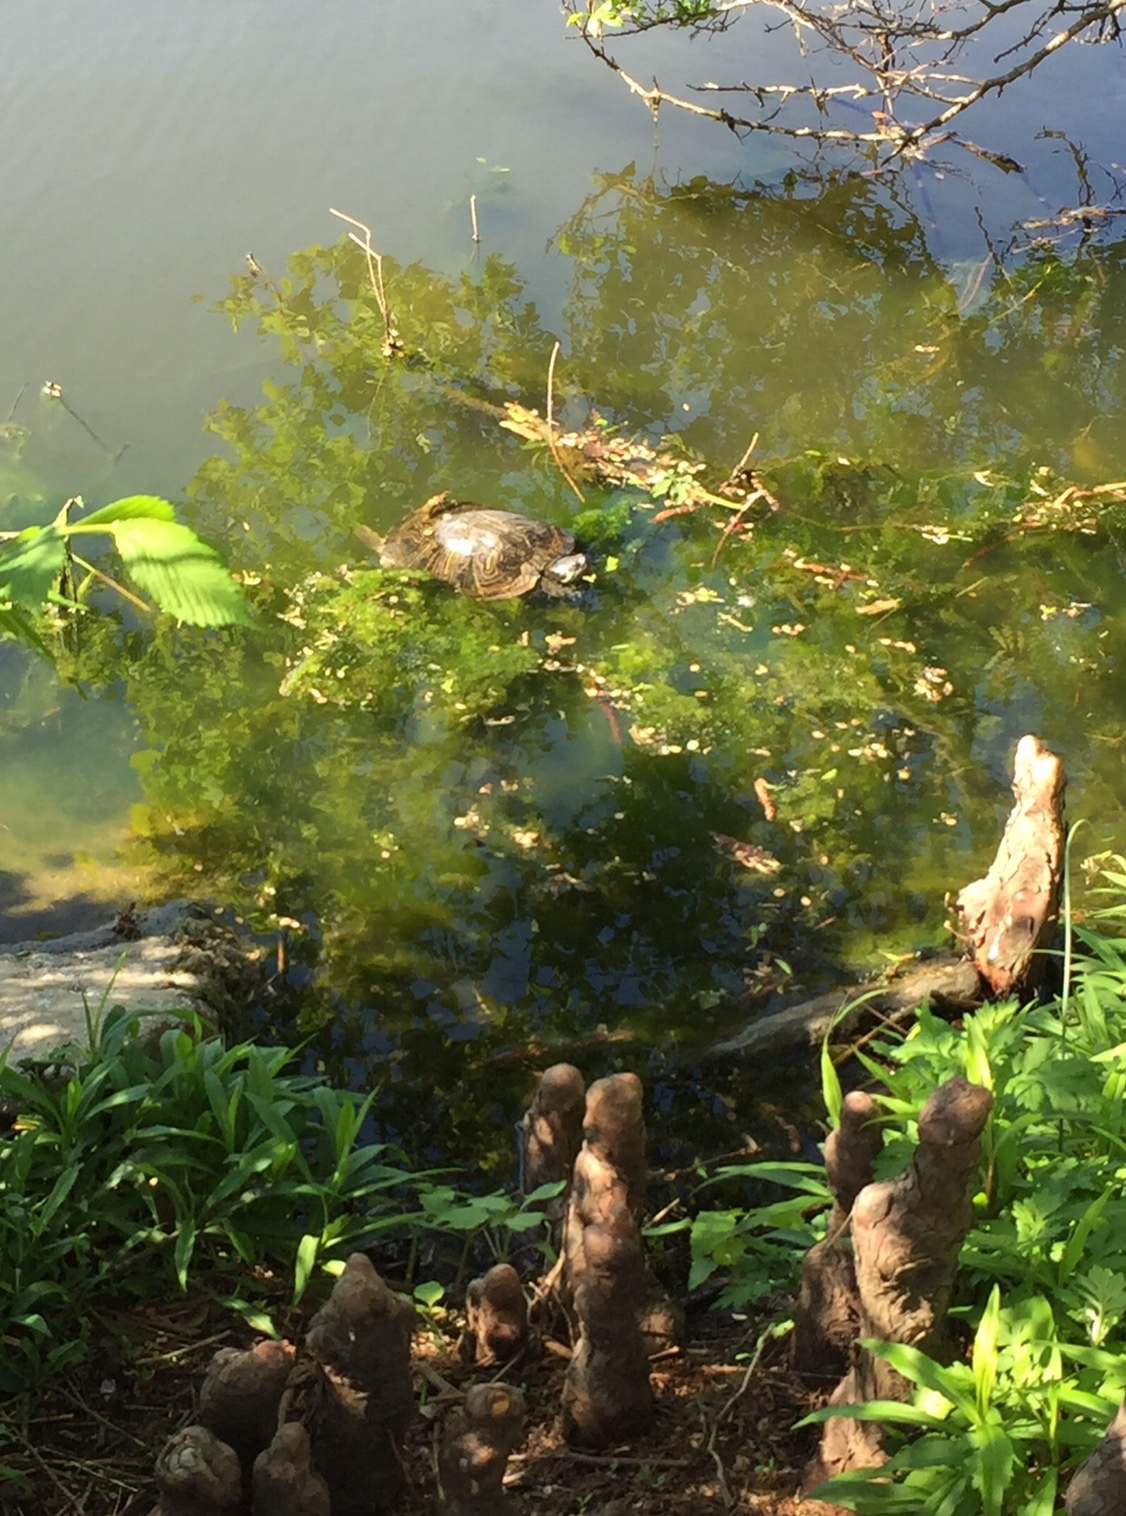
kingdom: Animalia
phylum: Chordata
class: Testudines
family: Emydidae
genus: Trachemys
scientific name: Trachemys scripta
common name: Slider
